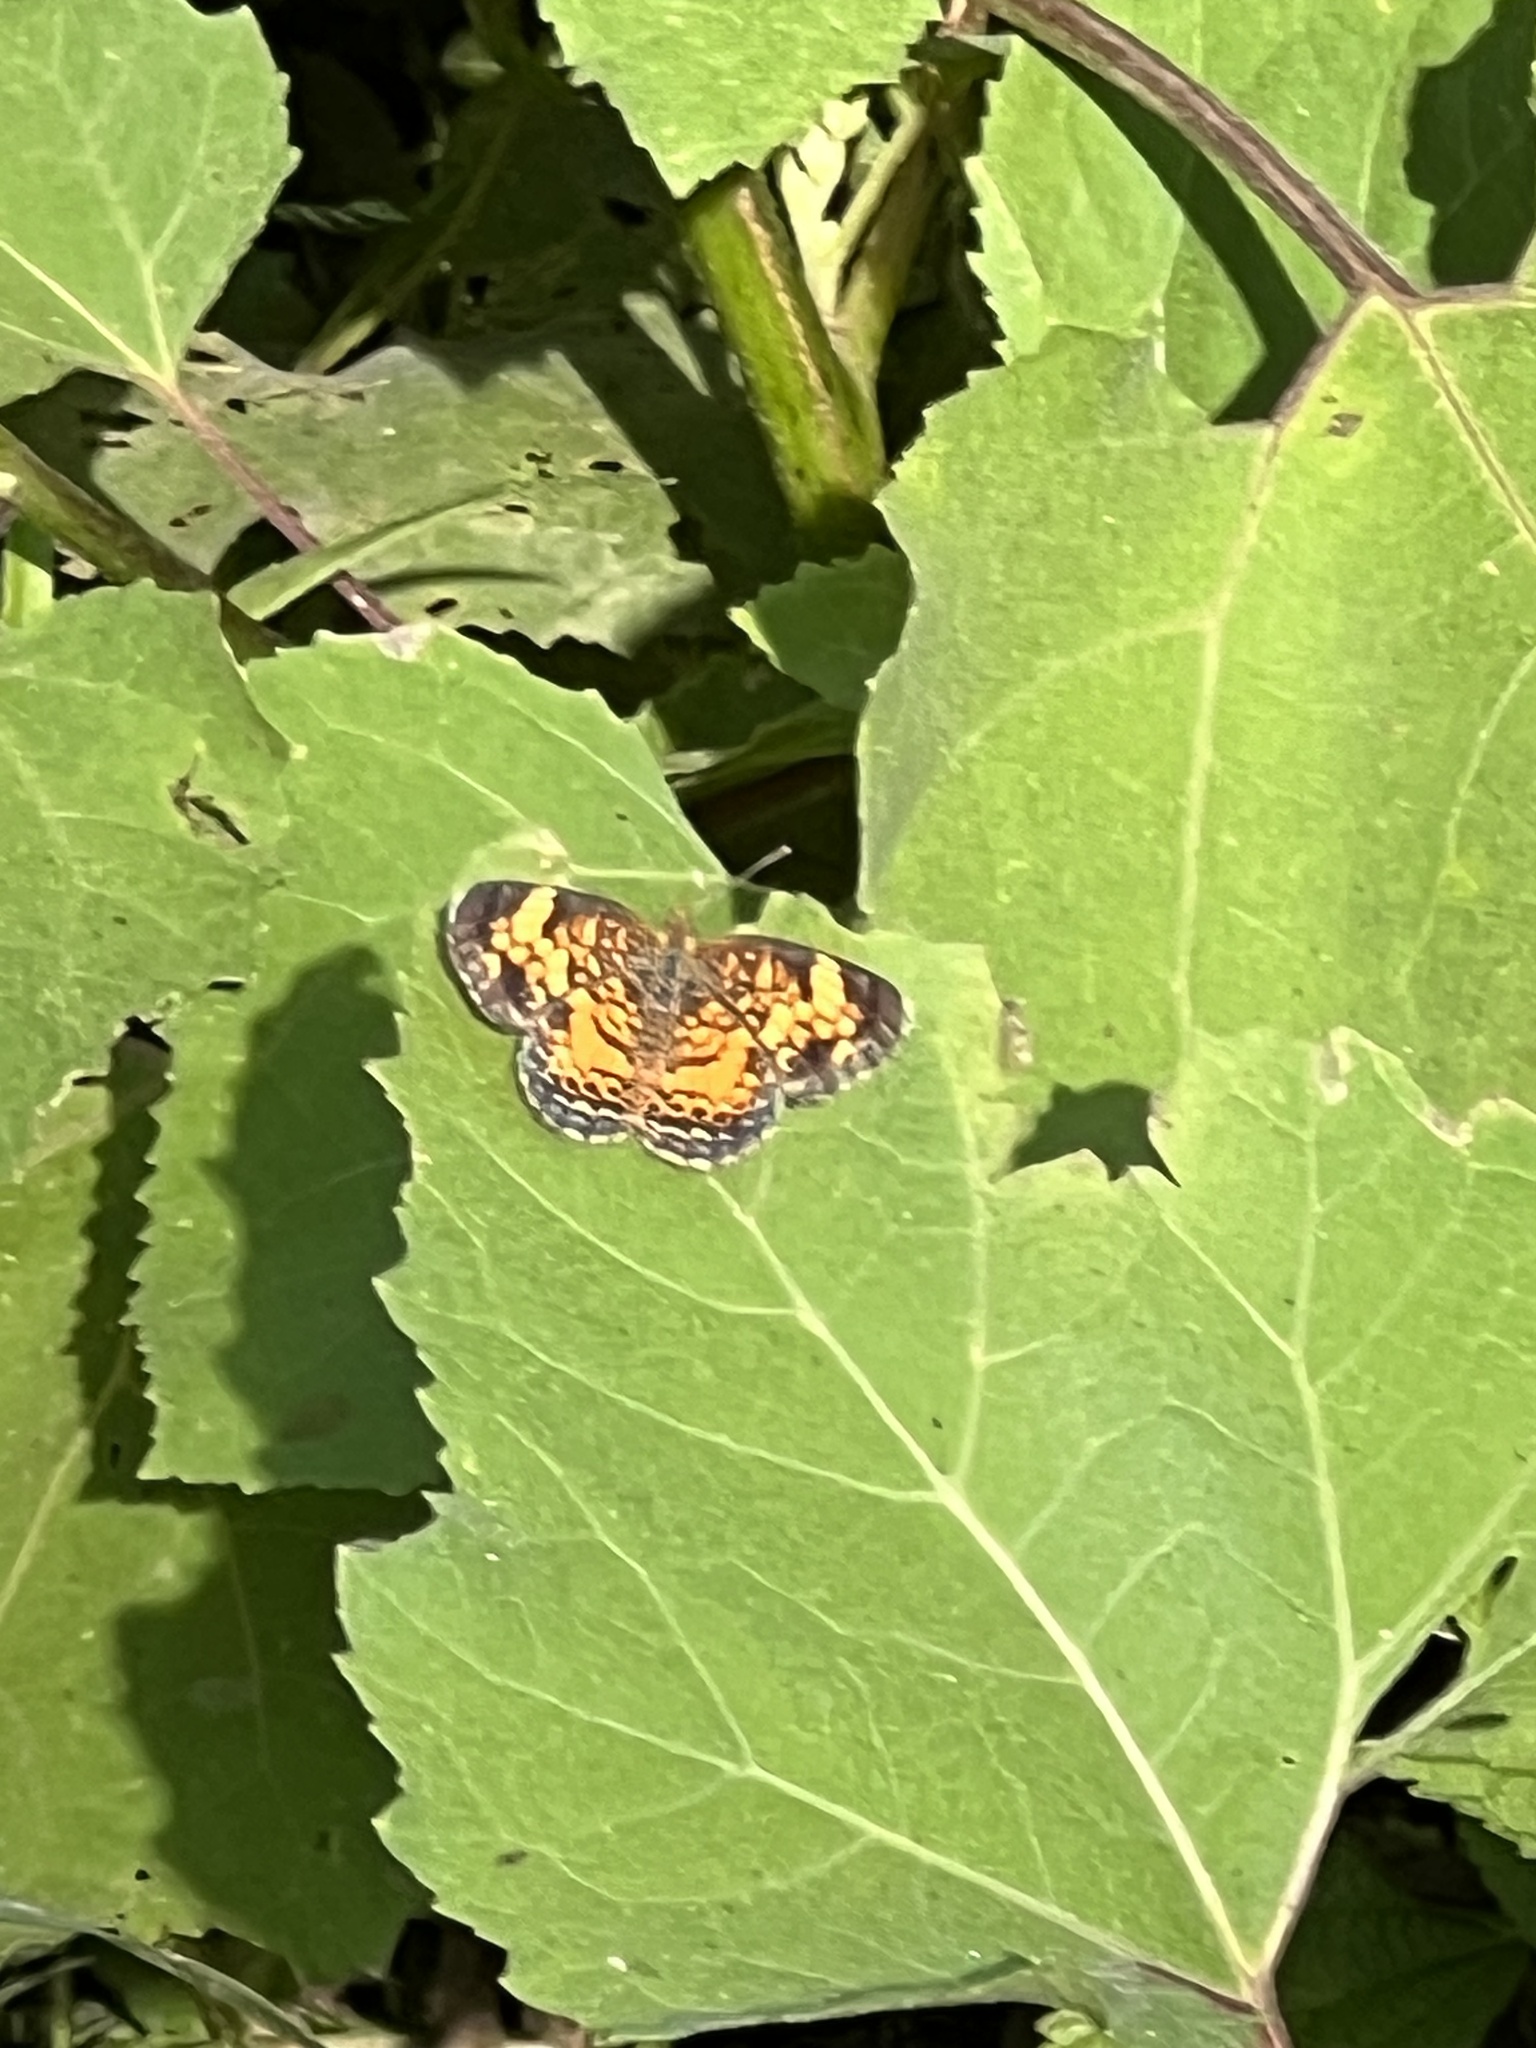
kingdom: Animalia
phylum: Arthropoda
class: Insecta
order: Lepidoptera
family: Nymphalidae
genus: Phyciodes
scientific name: Phyciodes tharos
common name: Pearl crescent
